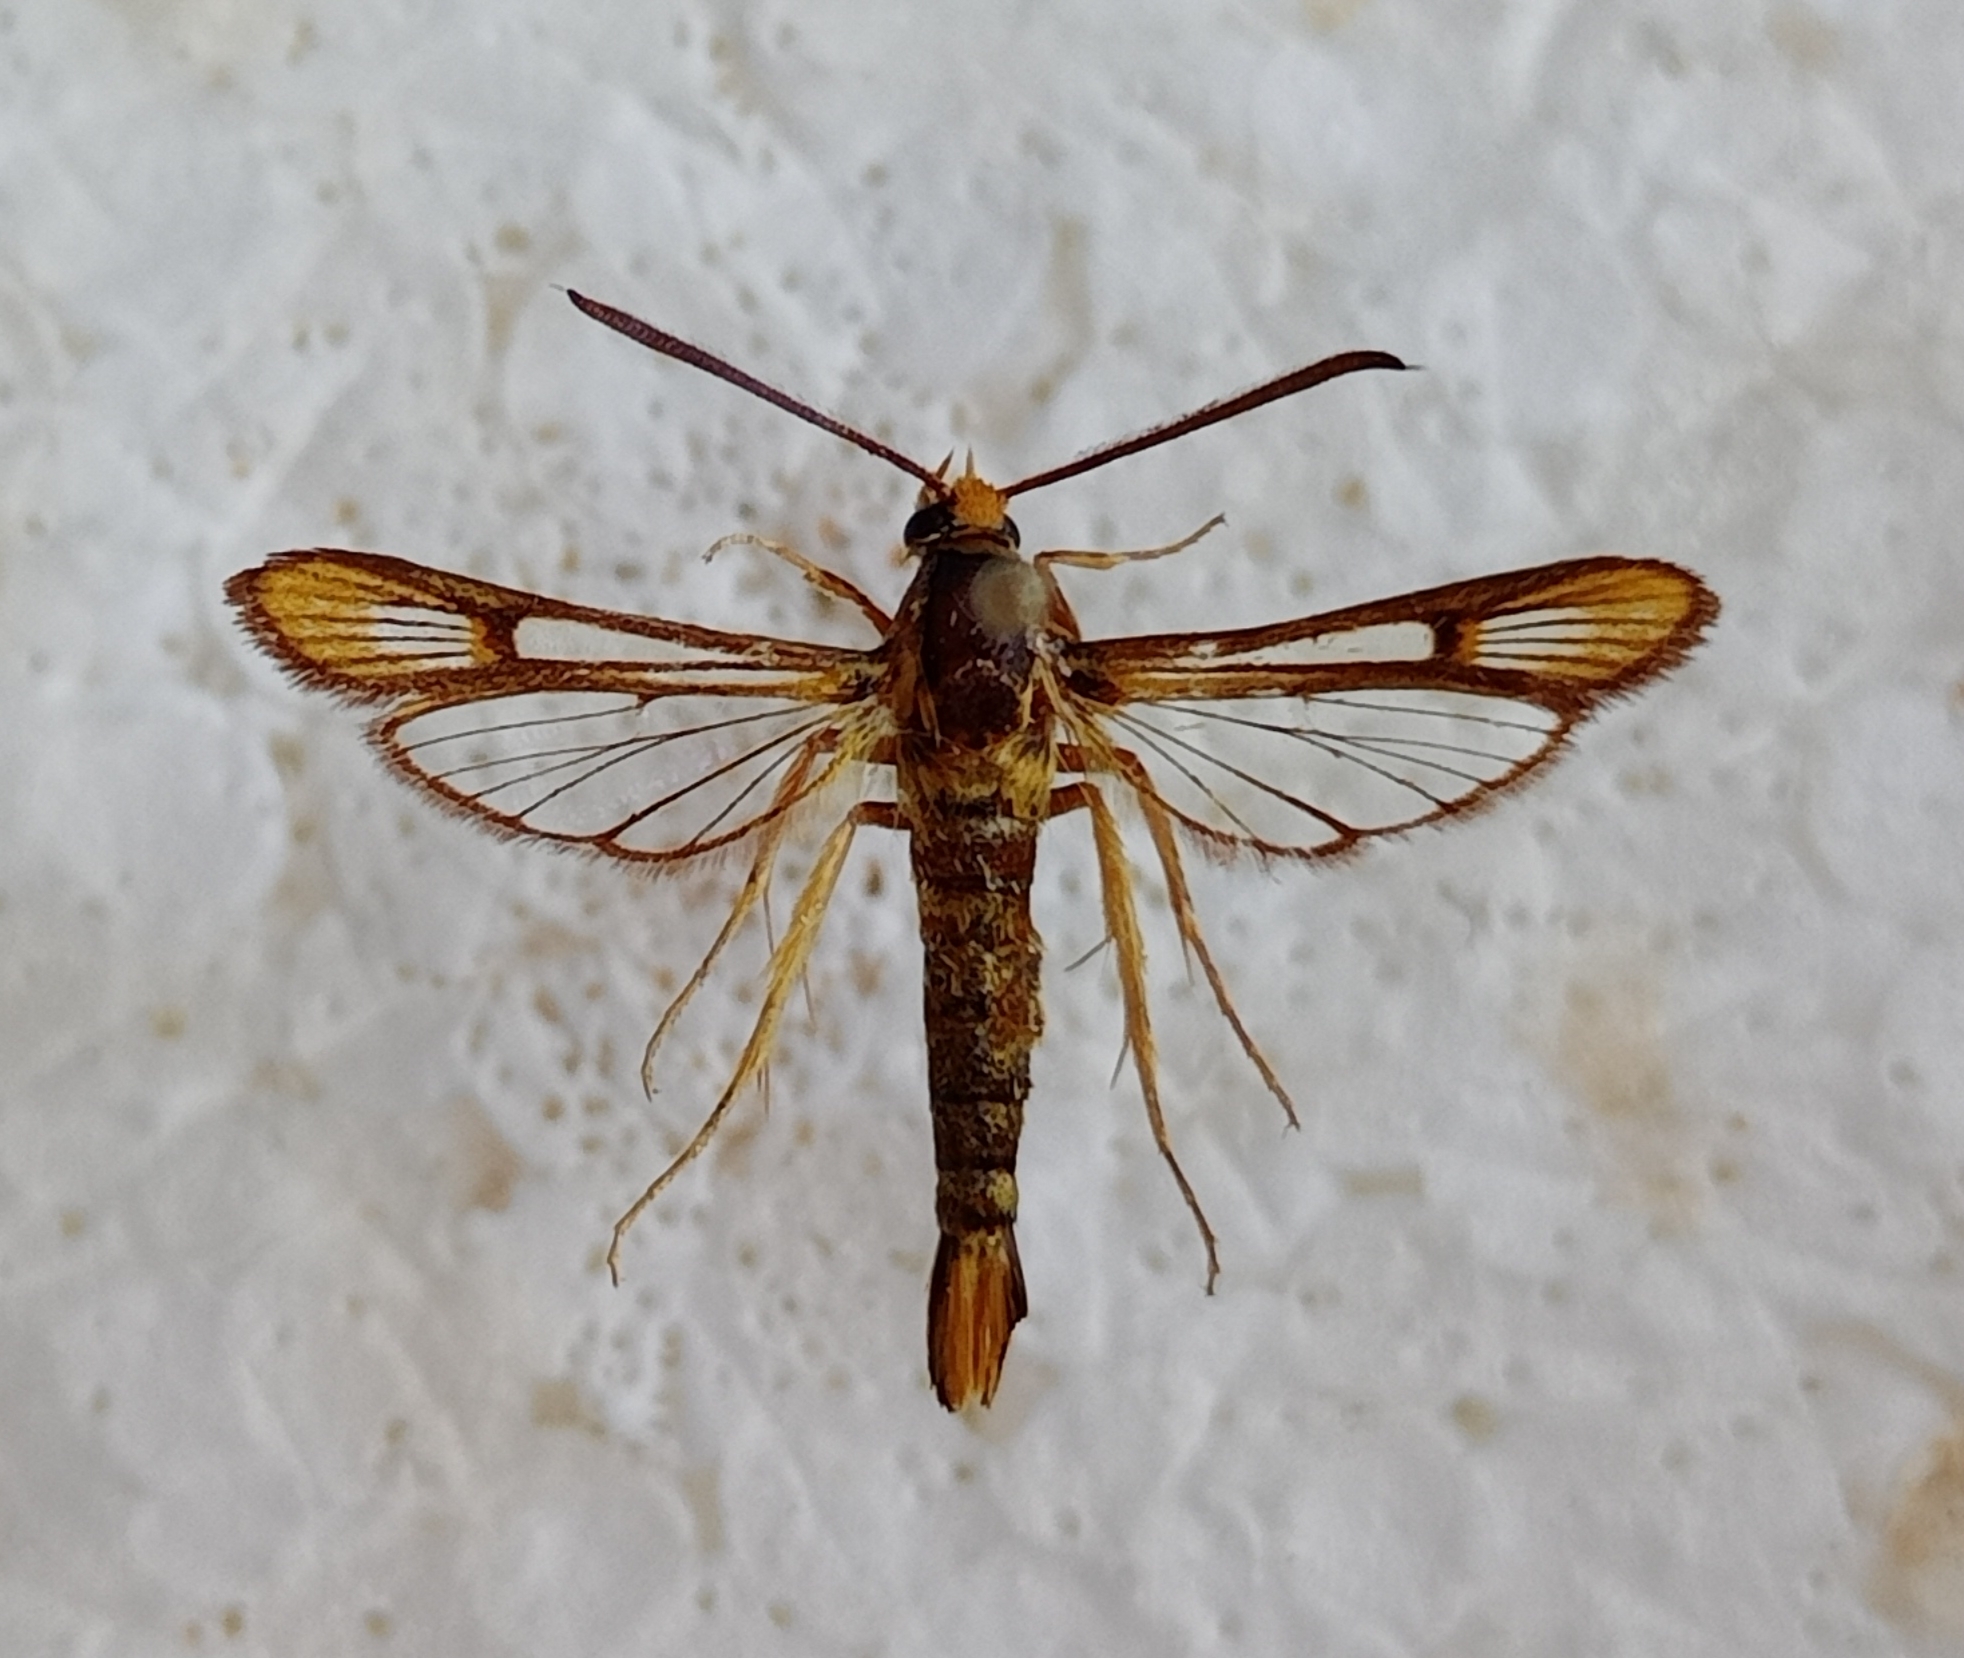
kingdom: Animalia
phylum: Arthropoda
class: Insecta
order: Lepidoptera
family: Sesiidae
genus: Chamaesphecia
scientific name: Chamaesphecia aurifera
